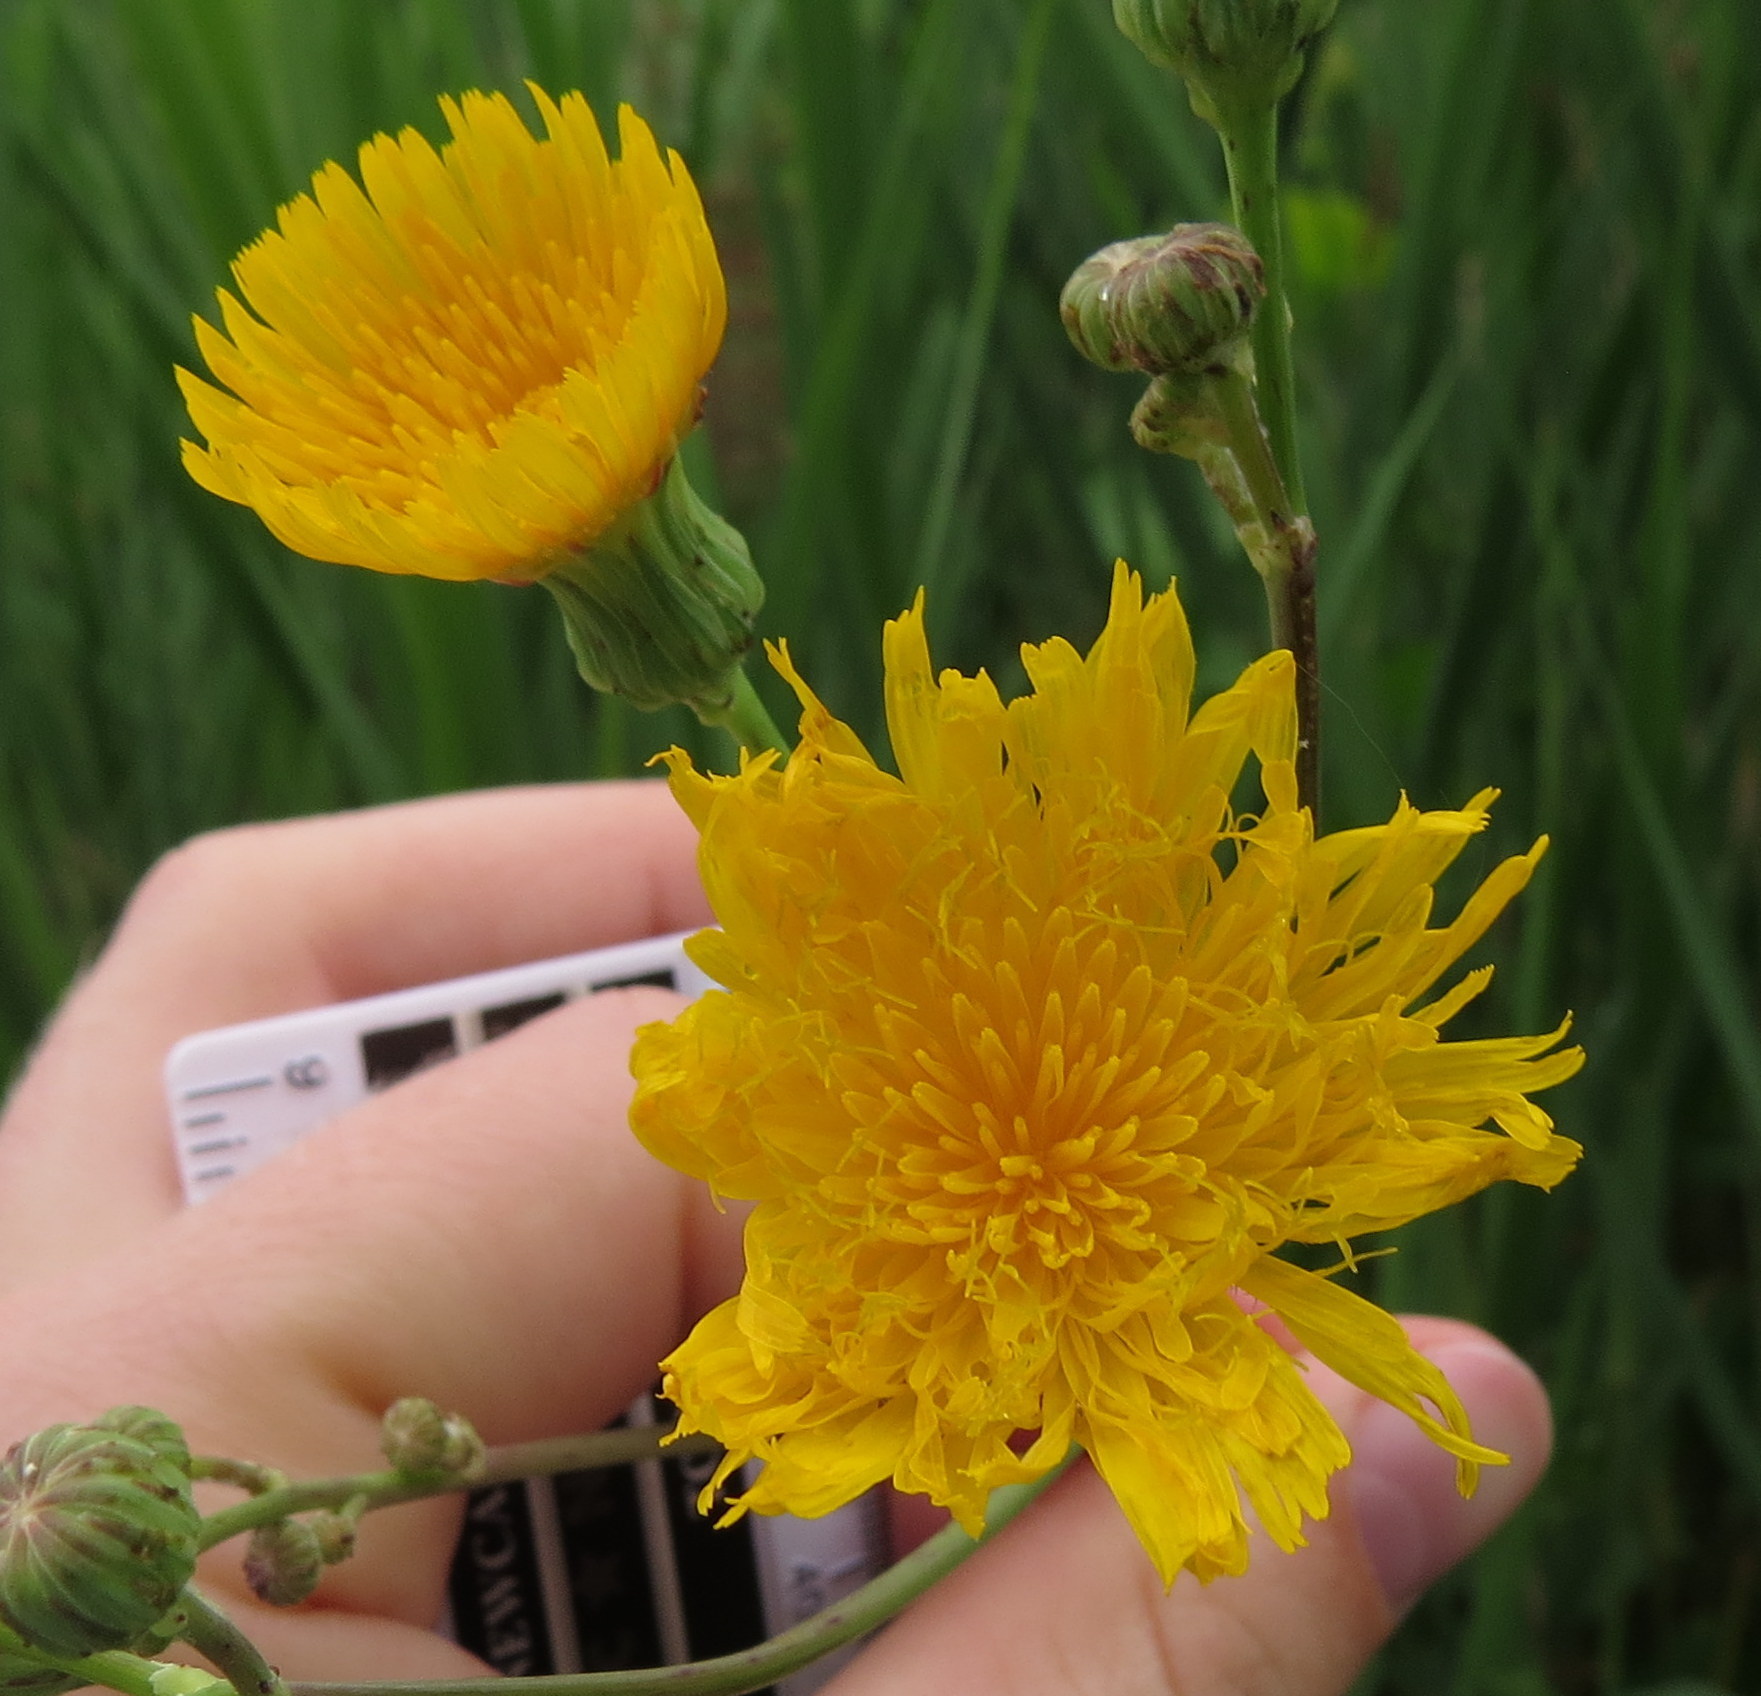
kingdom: Plantae
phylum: Tracheophyta
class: Magnoliopsida
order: Asterales
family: Asteraceae
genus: Sonchus
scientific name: Sonchus arvensis
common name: Perennial sow-thistle
